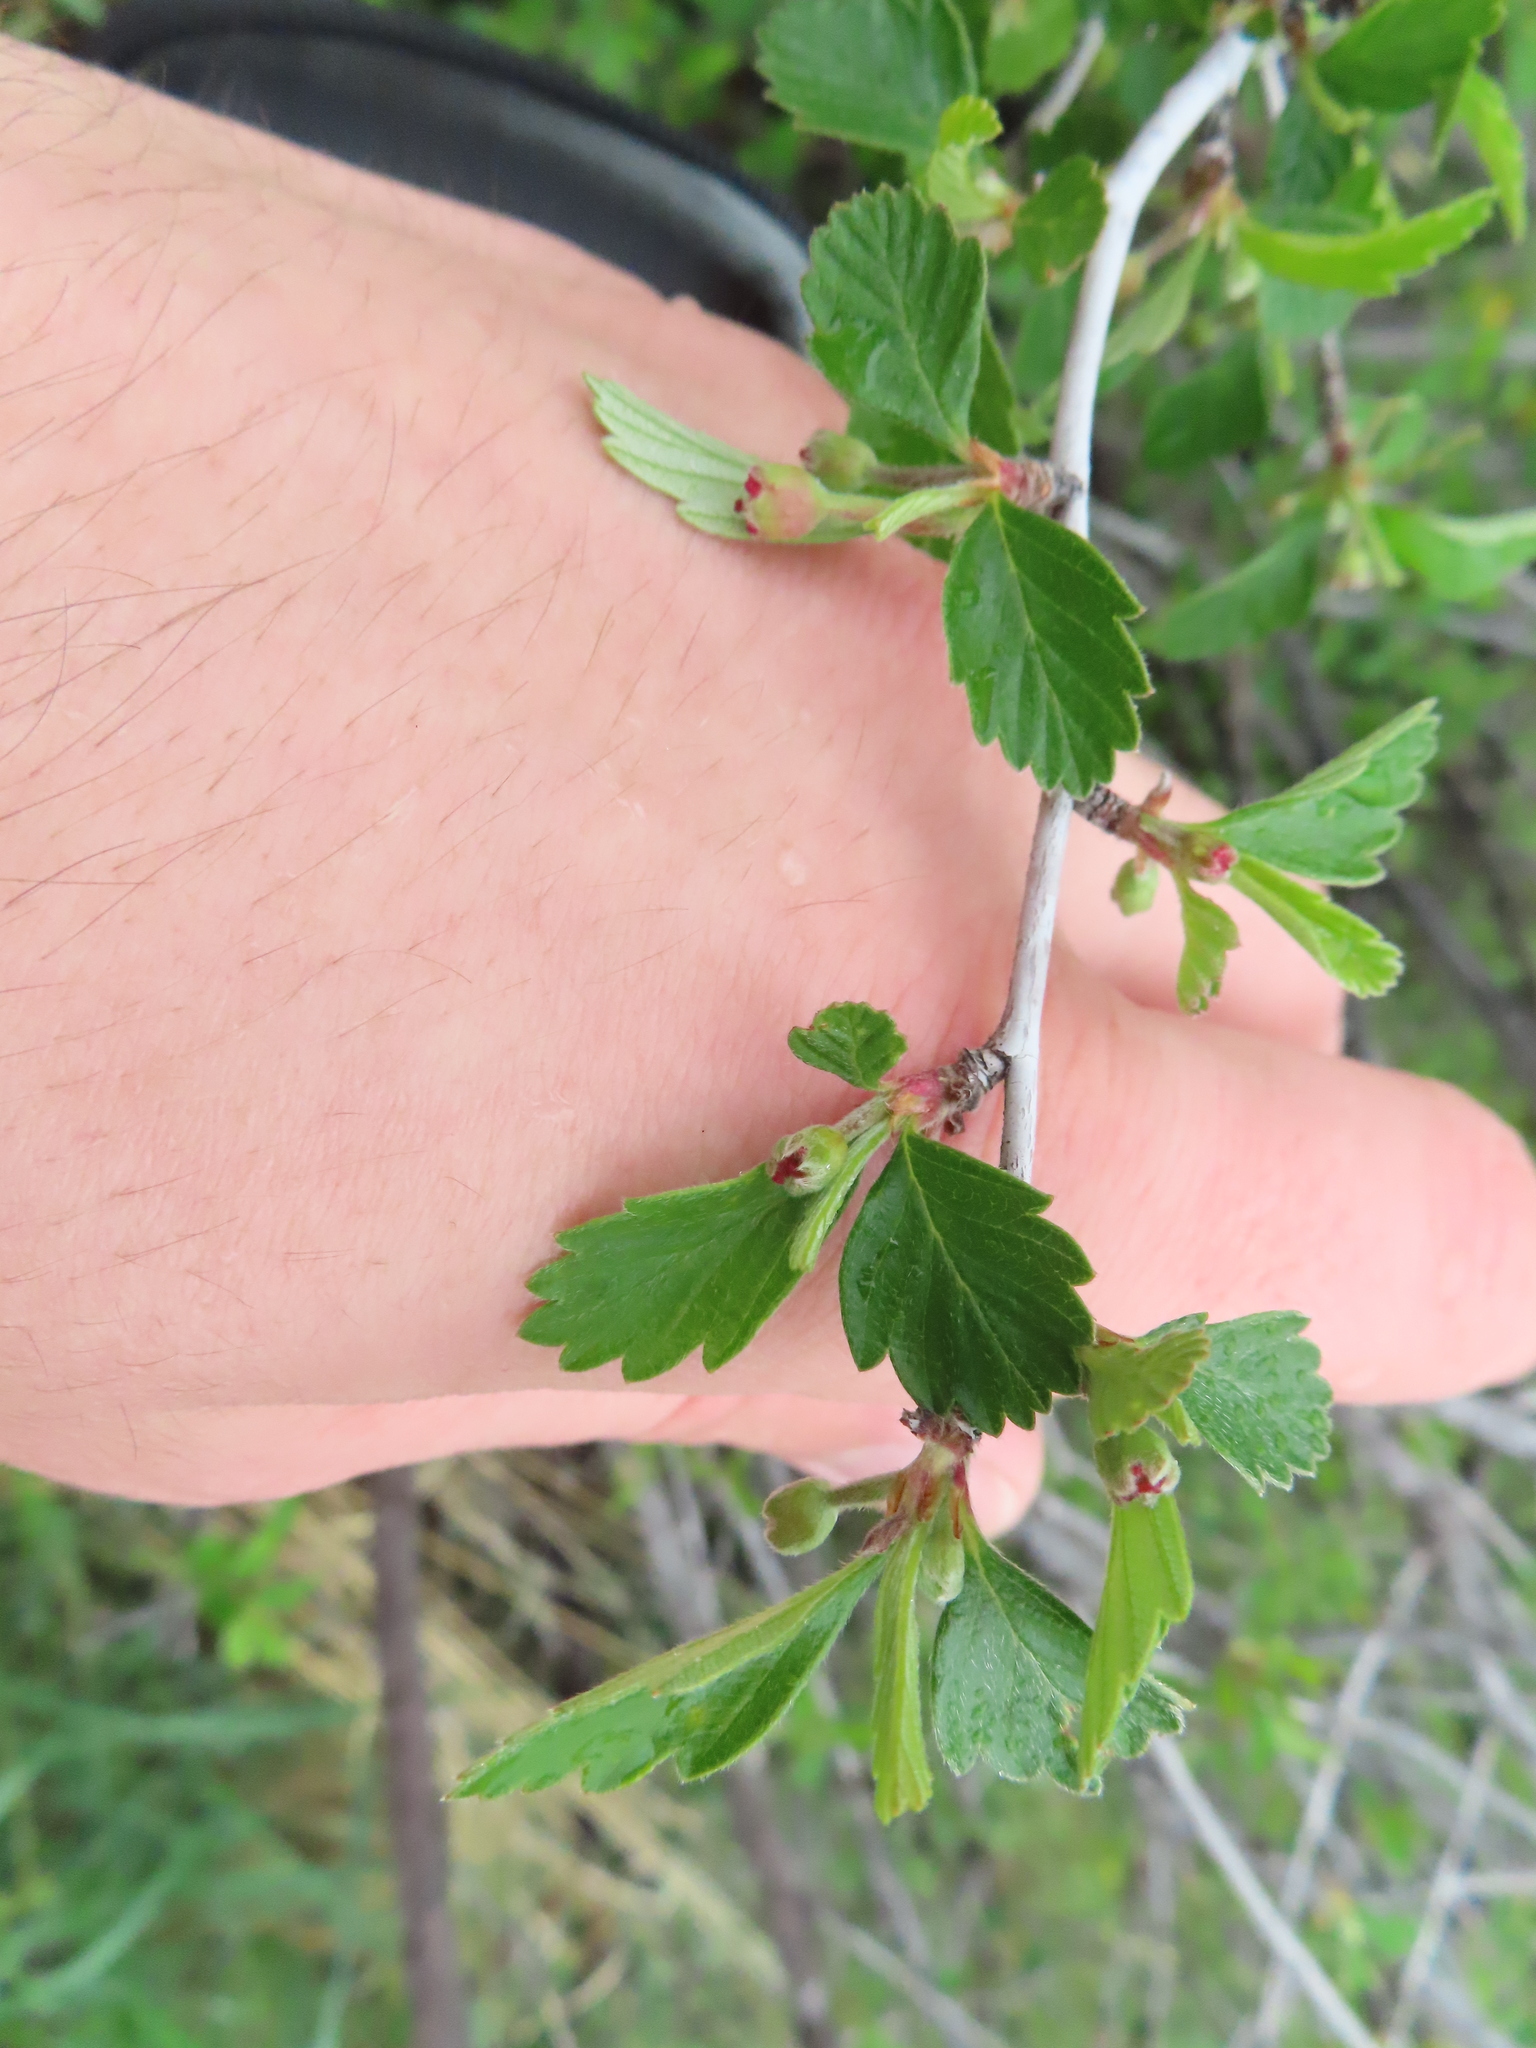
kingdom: Plantae
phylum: Tracheophyta
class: Magnoliopsida
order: Rosales
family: Rosaceae
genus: Cercocarpus
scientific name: Cercocarpus montanus
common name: Alder-leaf cercocarpus
